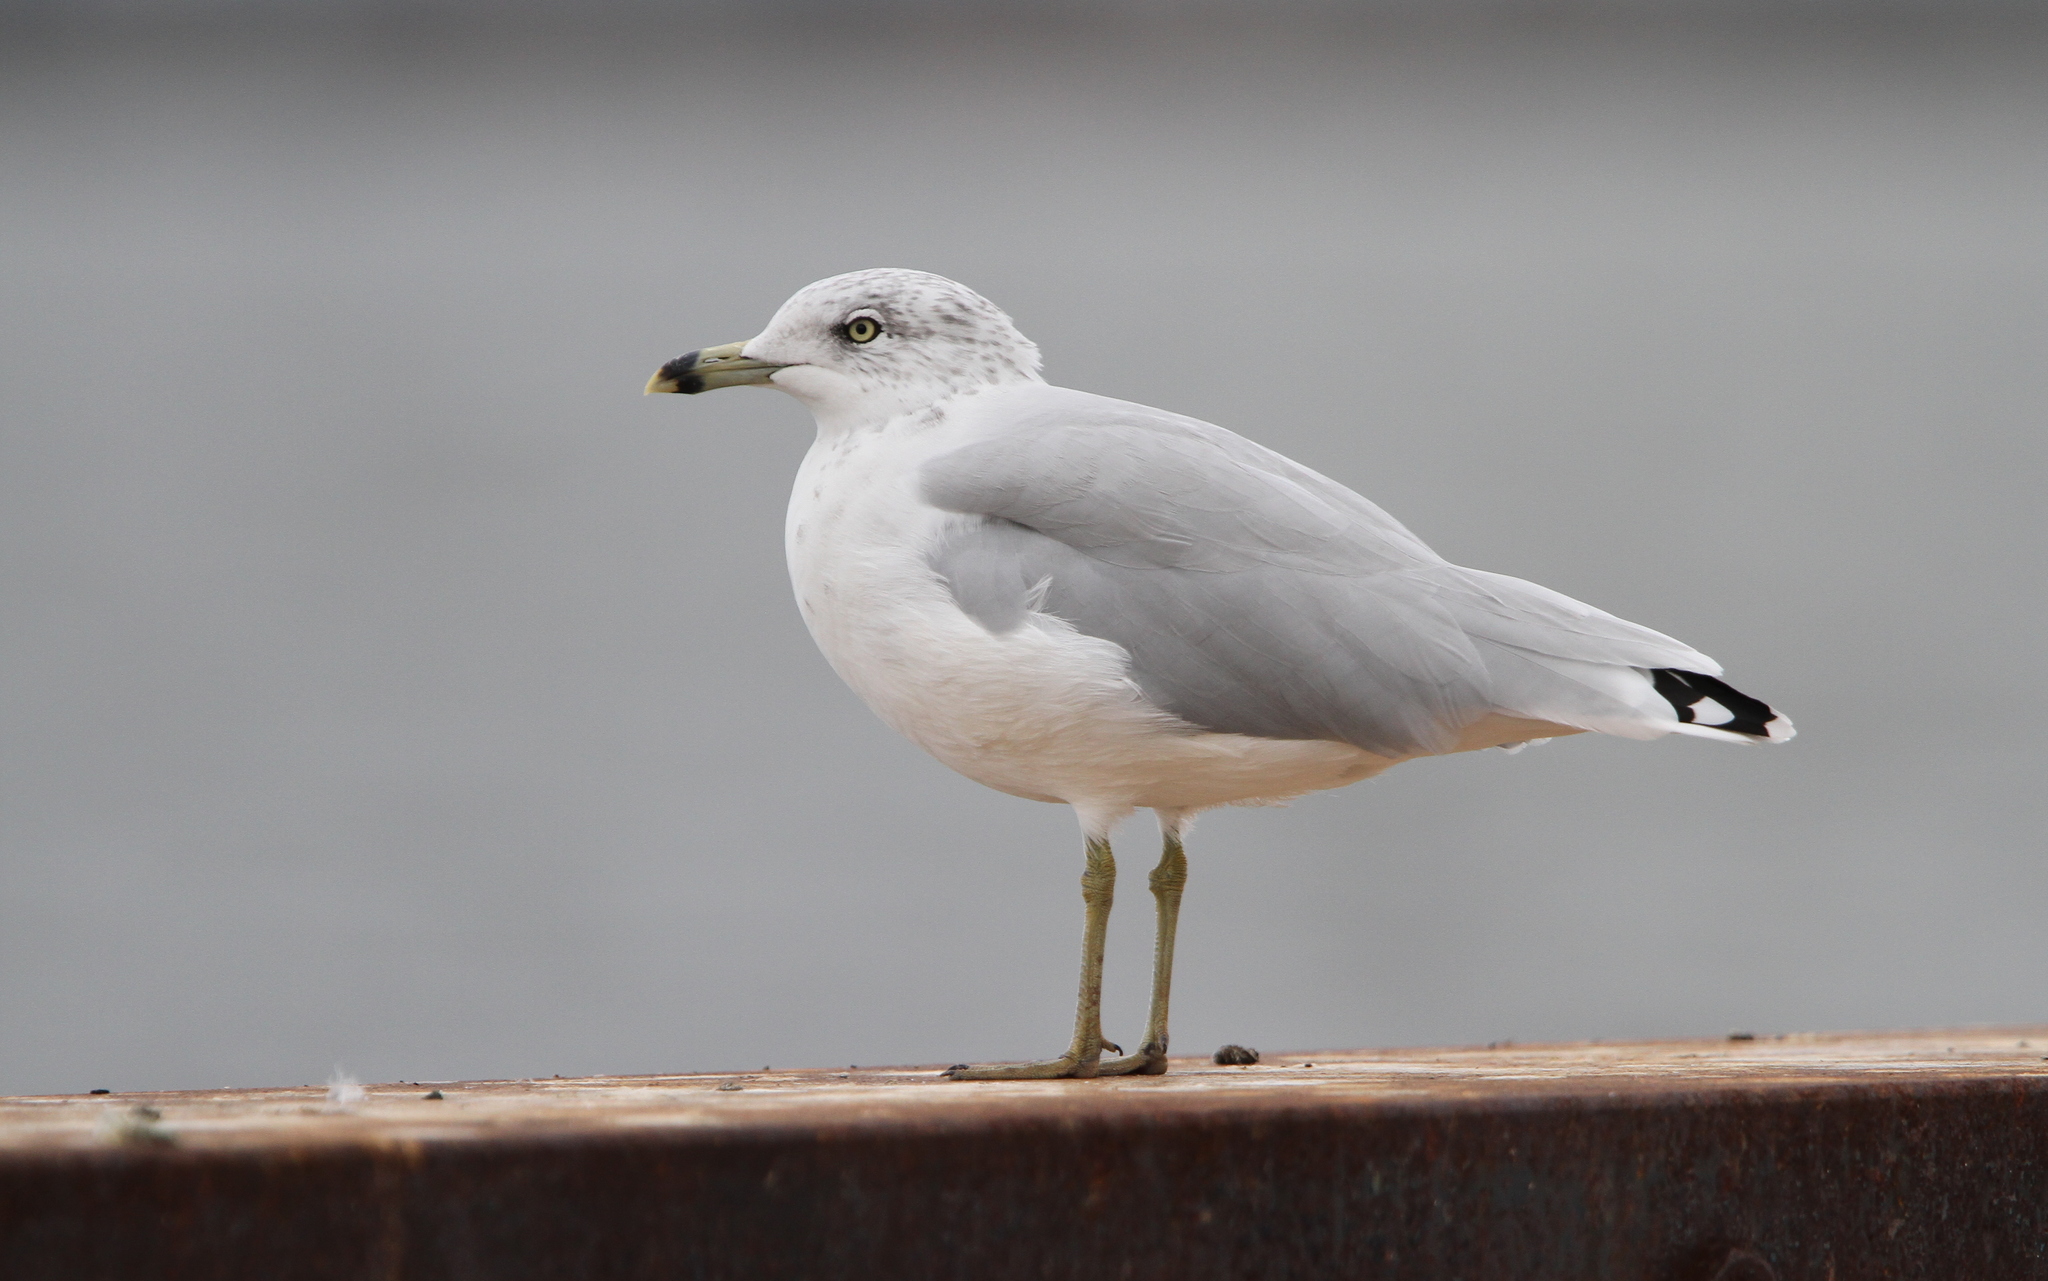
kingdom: Animalia
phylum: Chordata
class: Aves
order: Charadriiformes
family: Laridae
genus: Larus
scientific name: Larus delawarensis
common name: Ring-billed gull
